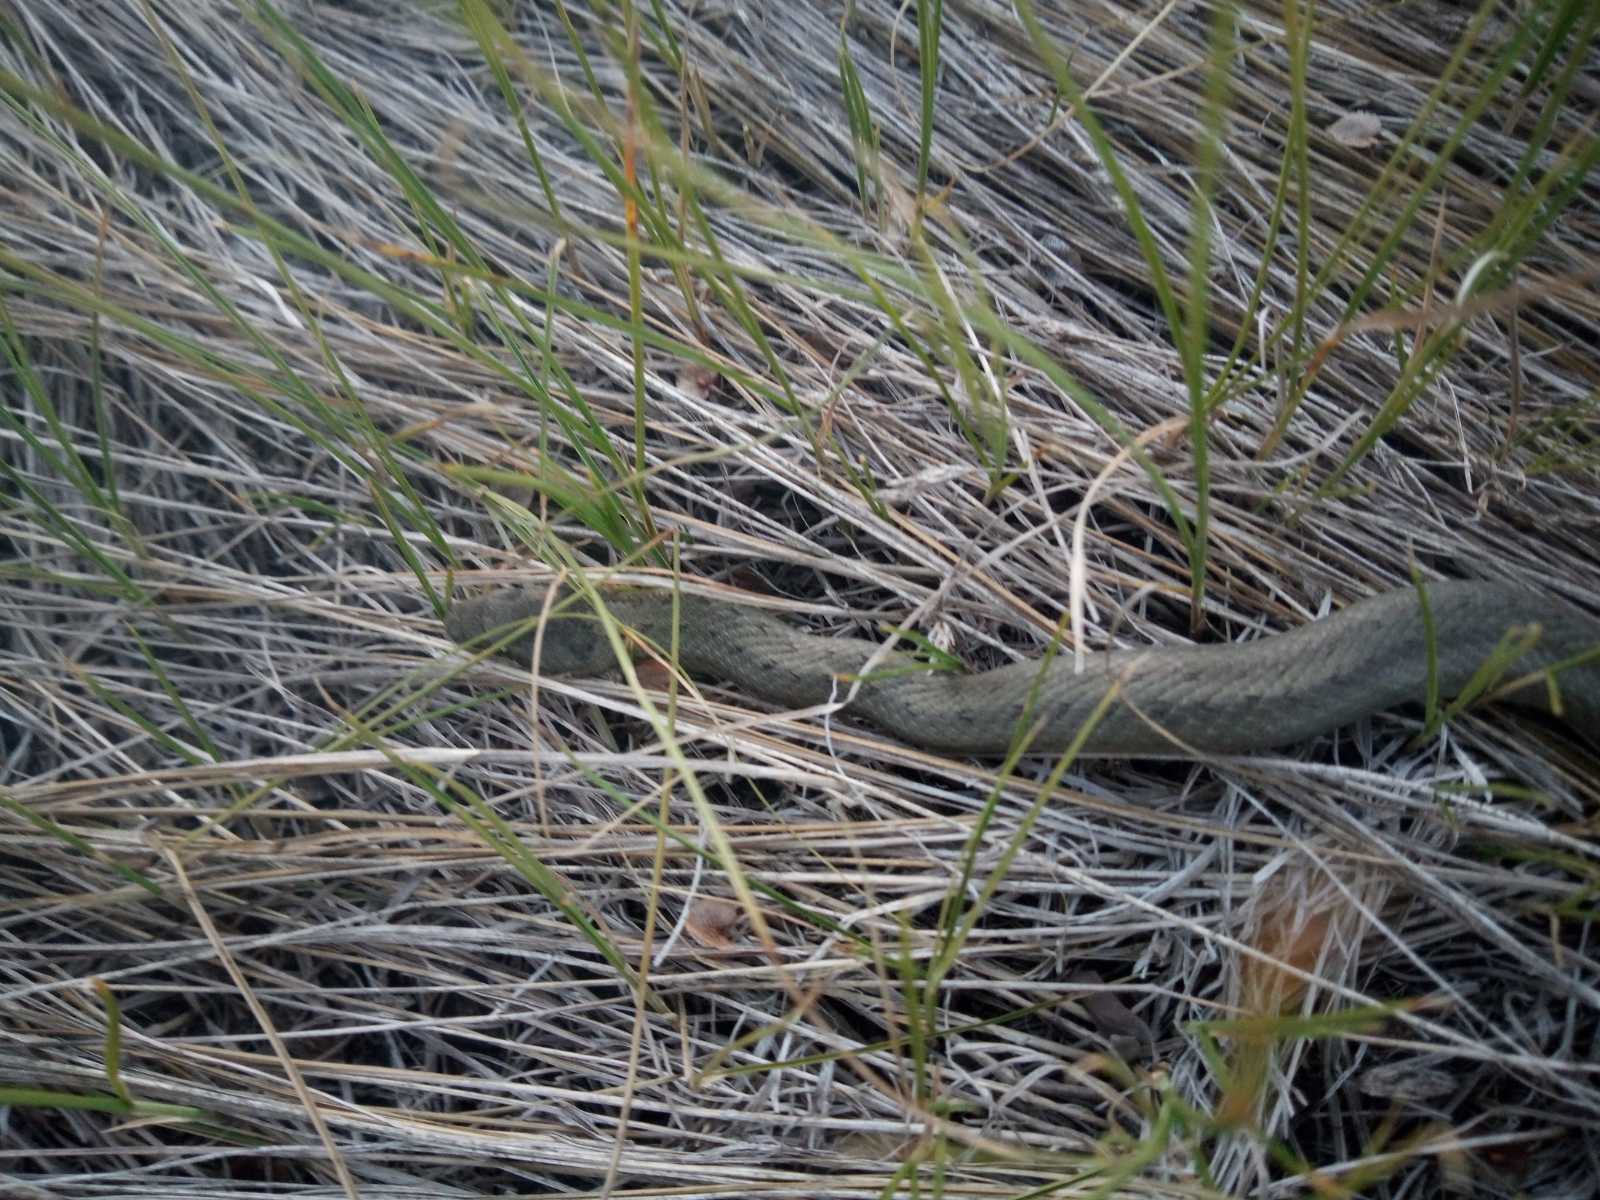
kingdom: Animalia
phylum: Chordata
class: Squamata
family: Colubridae
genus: Coronella
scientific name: Coronella austriaca
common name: Smooth snake
